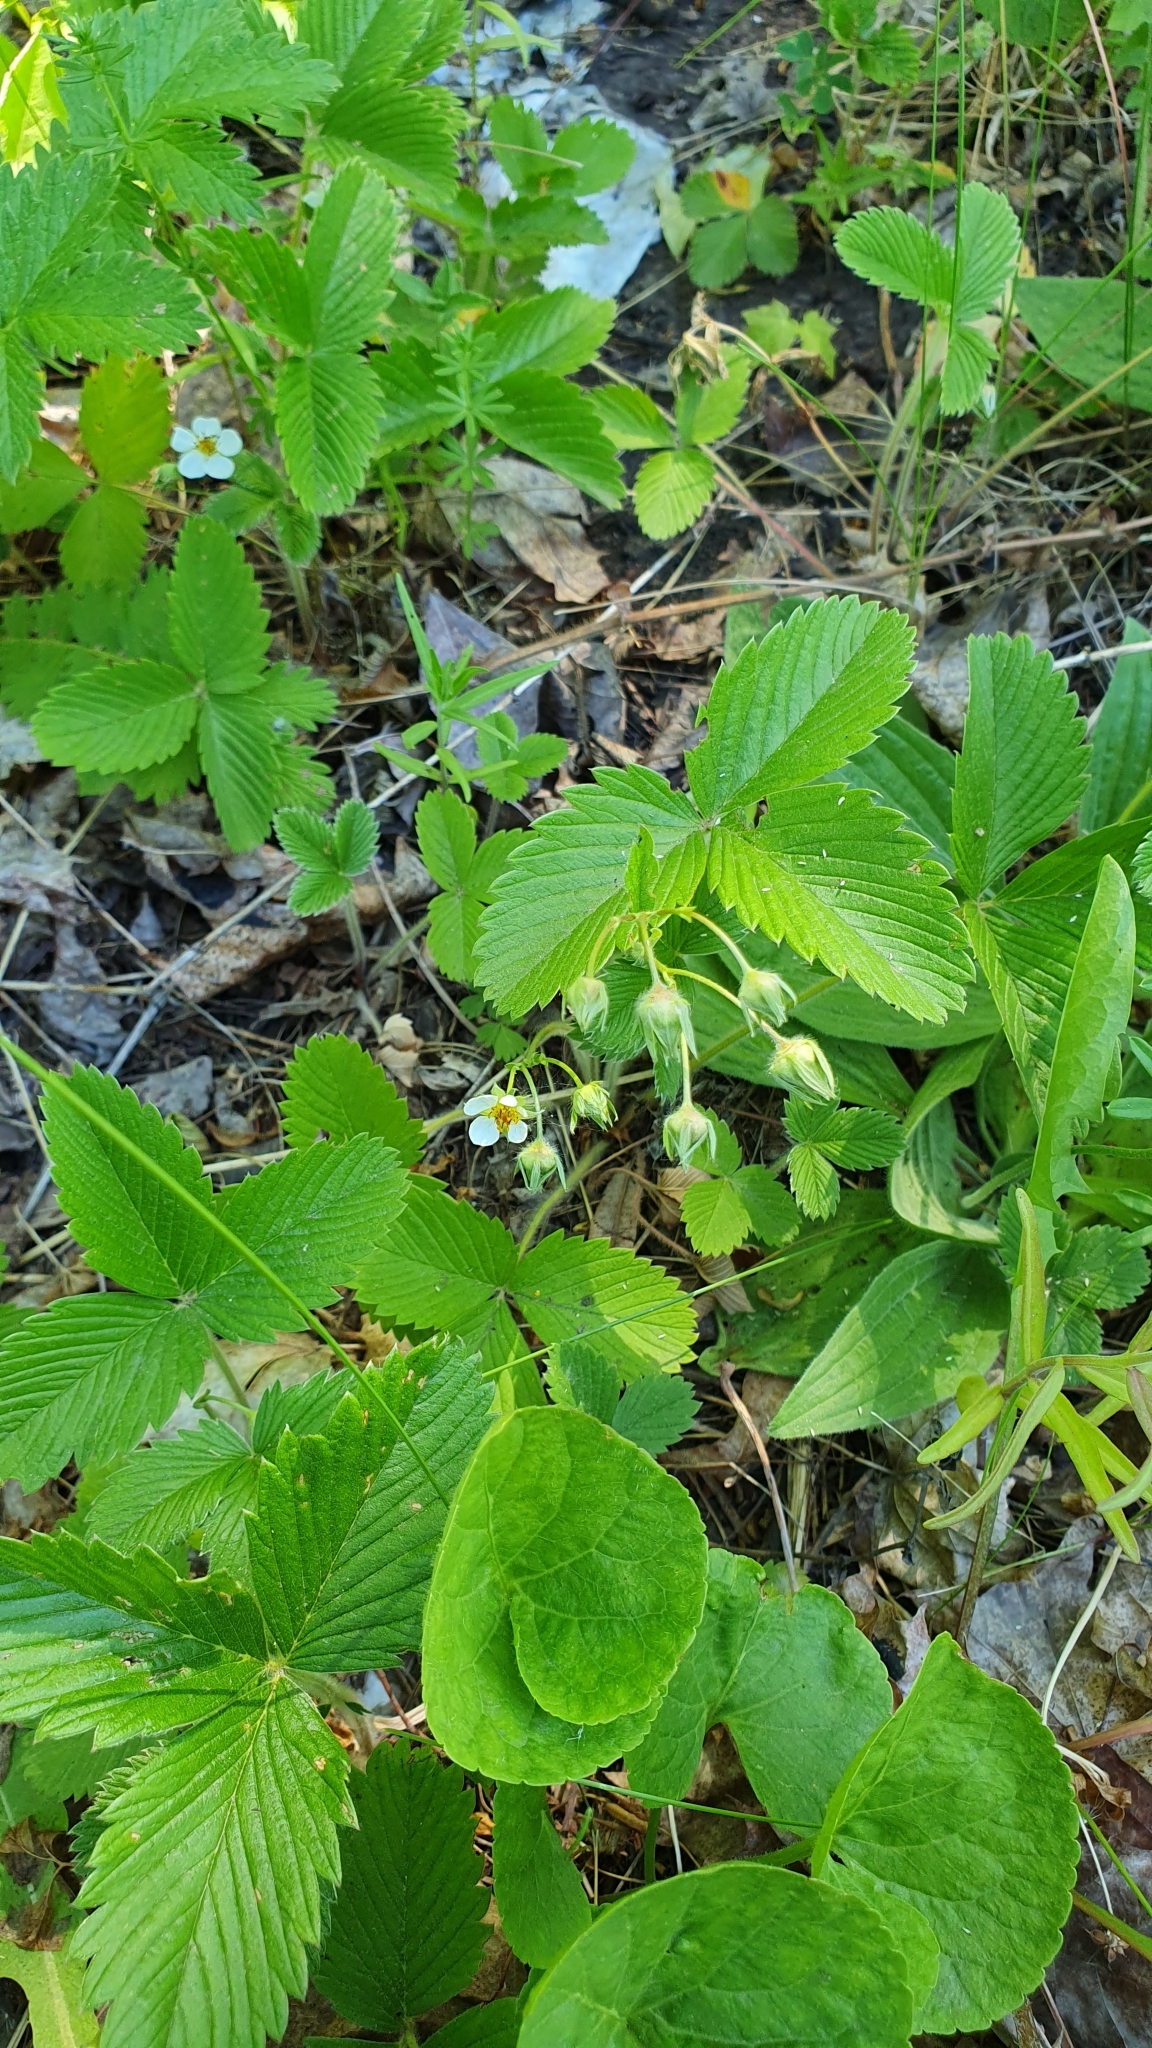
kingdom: Plantae
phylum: Tracheophyta
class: Magnoliopsida
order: Rosales
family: Rosaceae
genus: Fragaria
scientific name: Fragaria viridis
